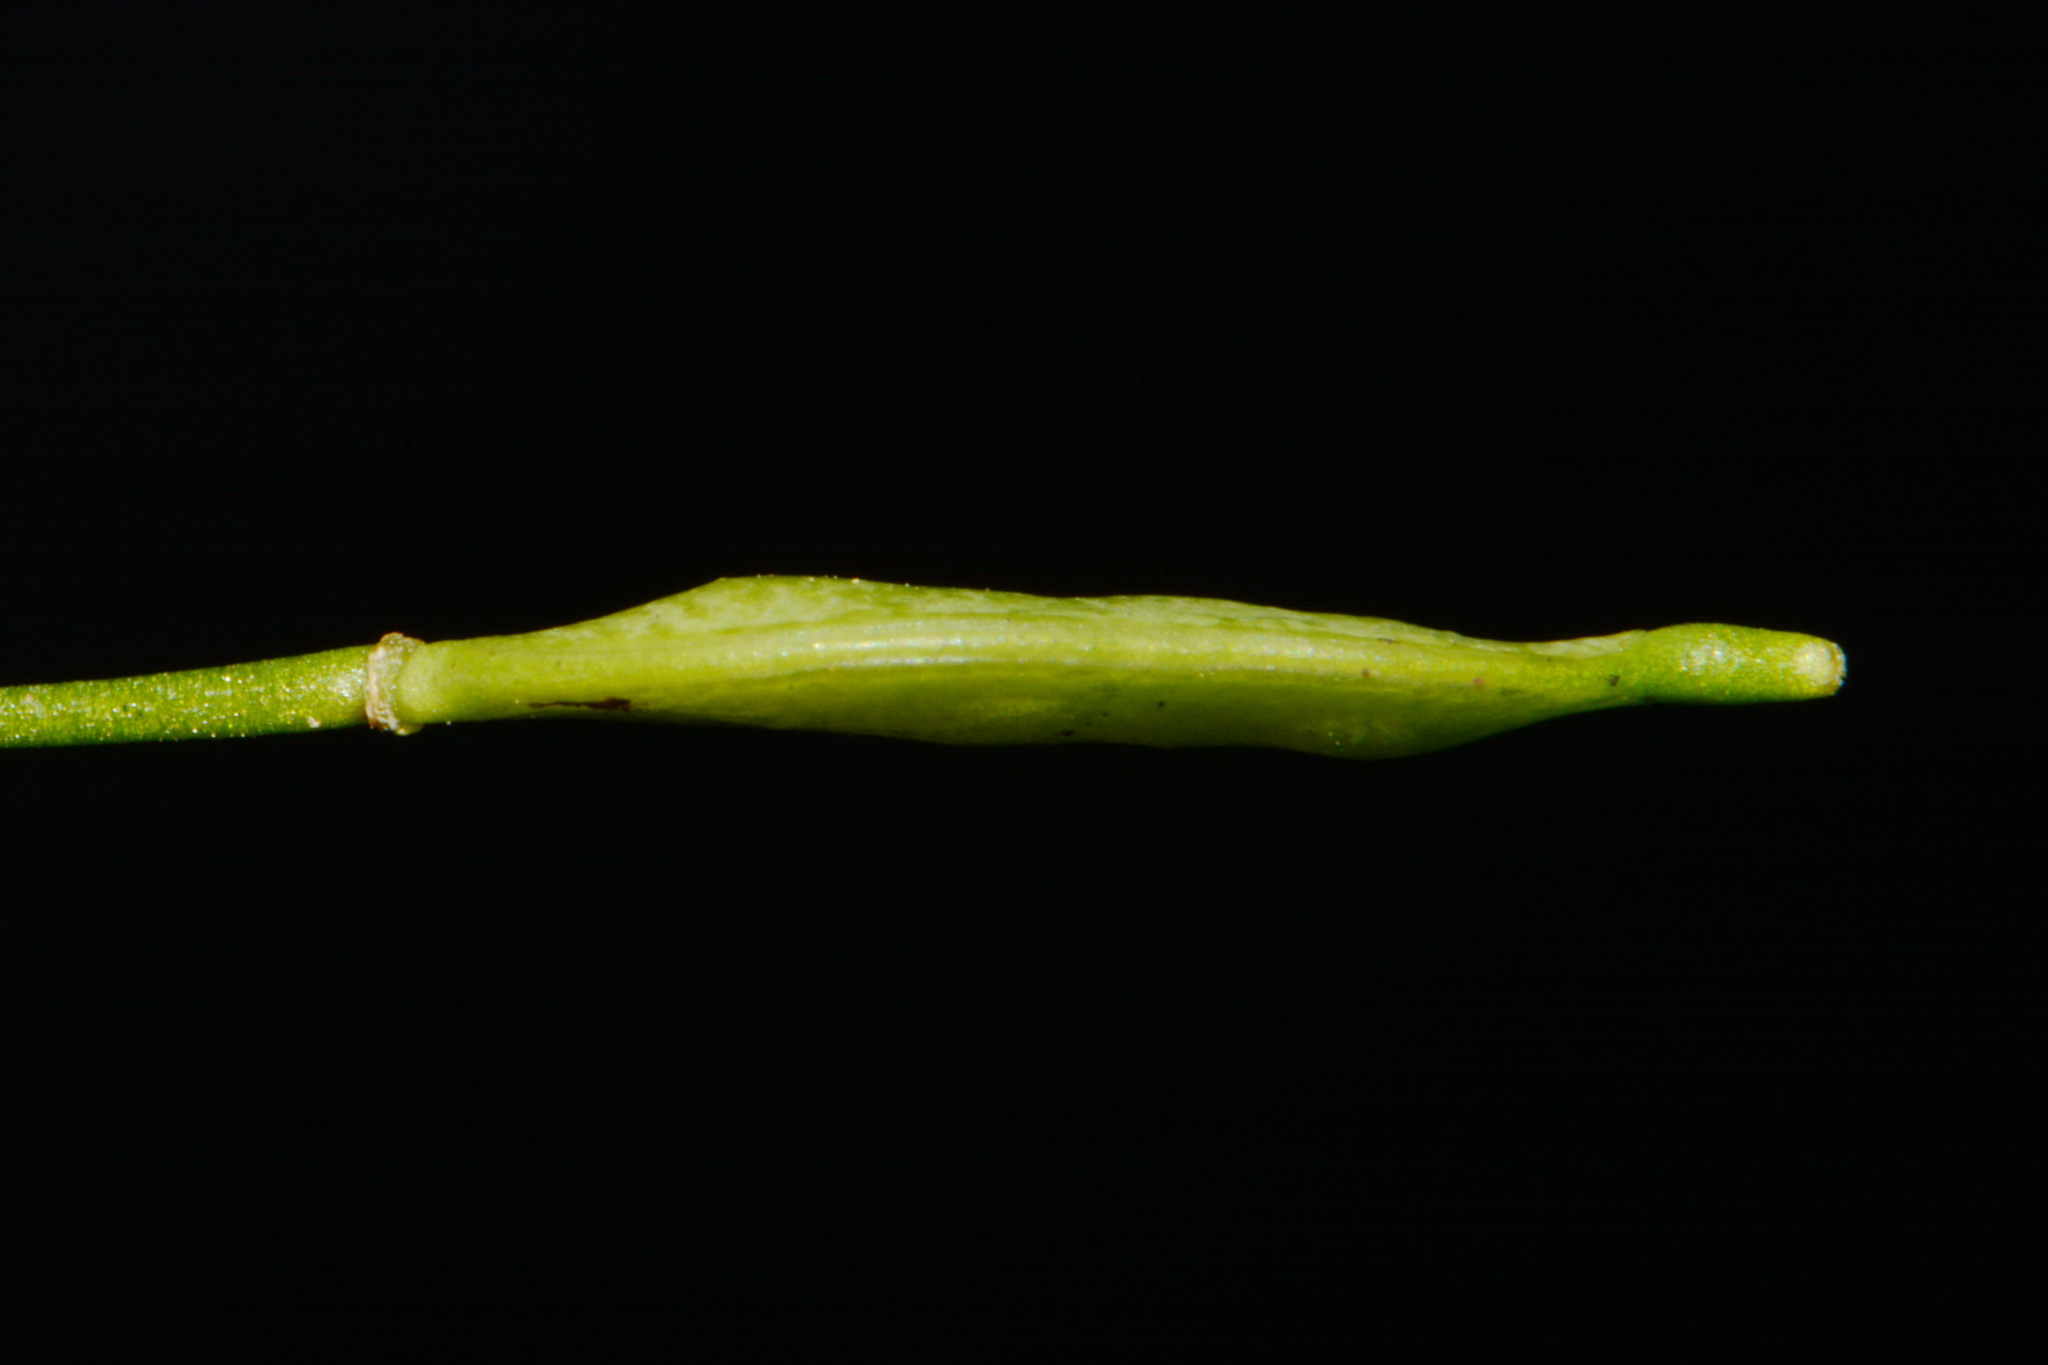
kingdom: Plantae
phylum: Tracheophyta
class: Magnoliopsida
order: Brassicales
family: Brassicaceae
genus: Leavenworthia
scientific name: Leavenworthia exigua
